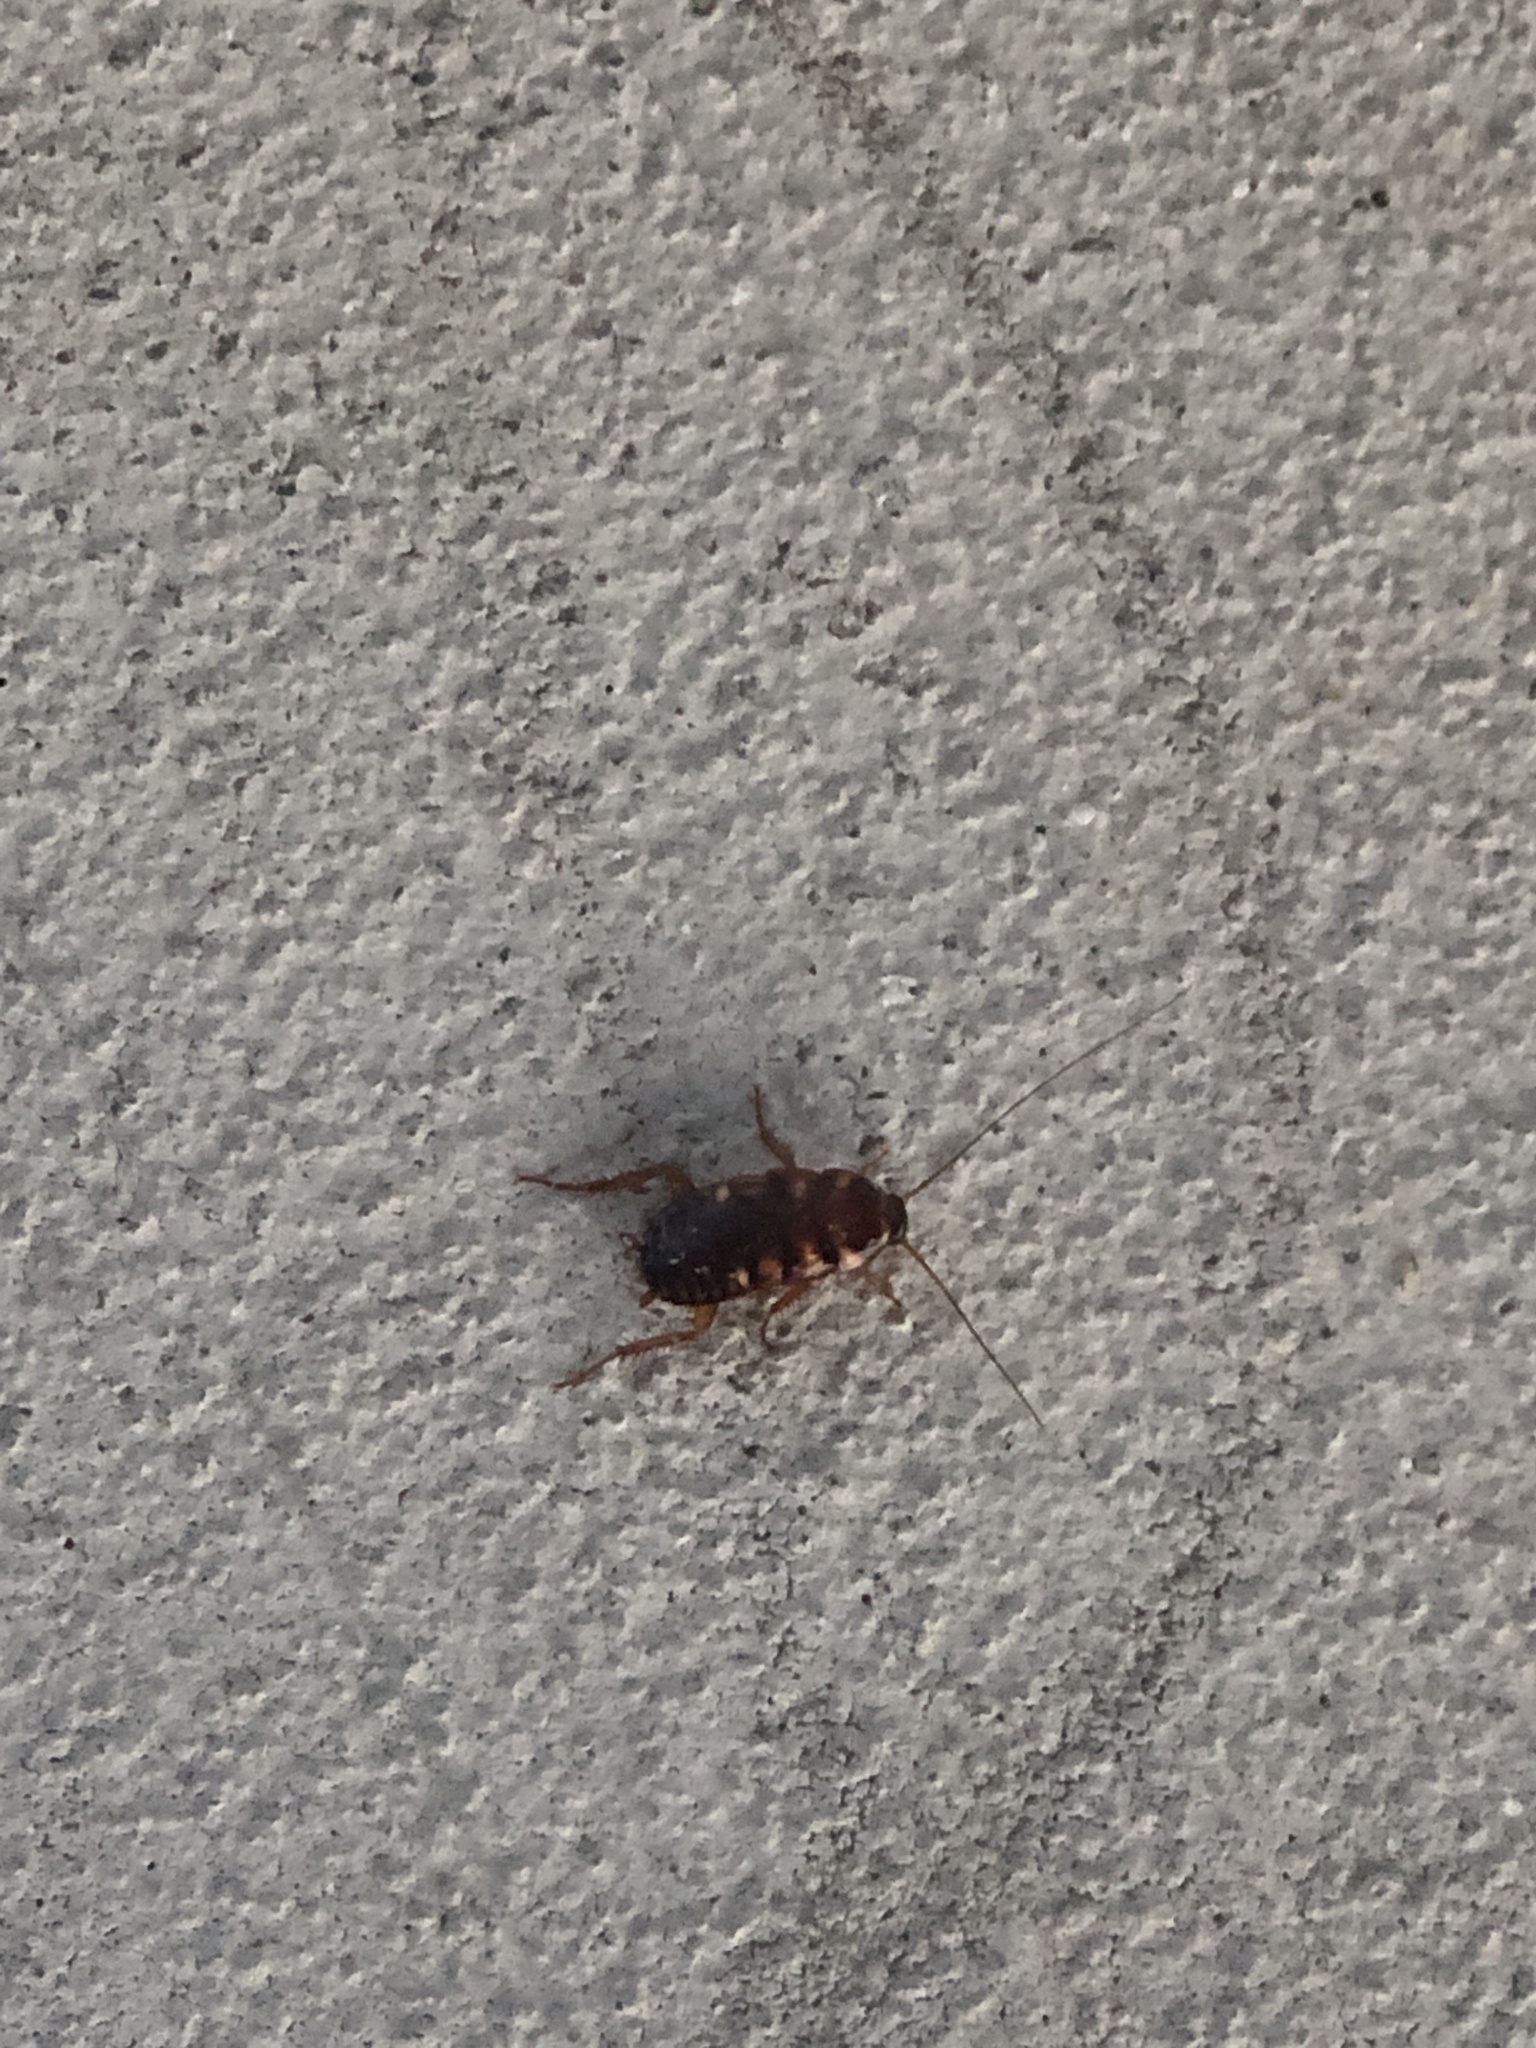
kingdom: Animalia
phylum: Arthropoda
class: Insecta
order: Blattodea
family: Blattidae
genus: Periplaneta
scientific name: Periplaneta australasiae
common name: Australian cockroach
